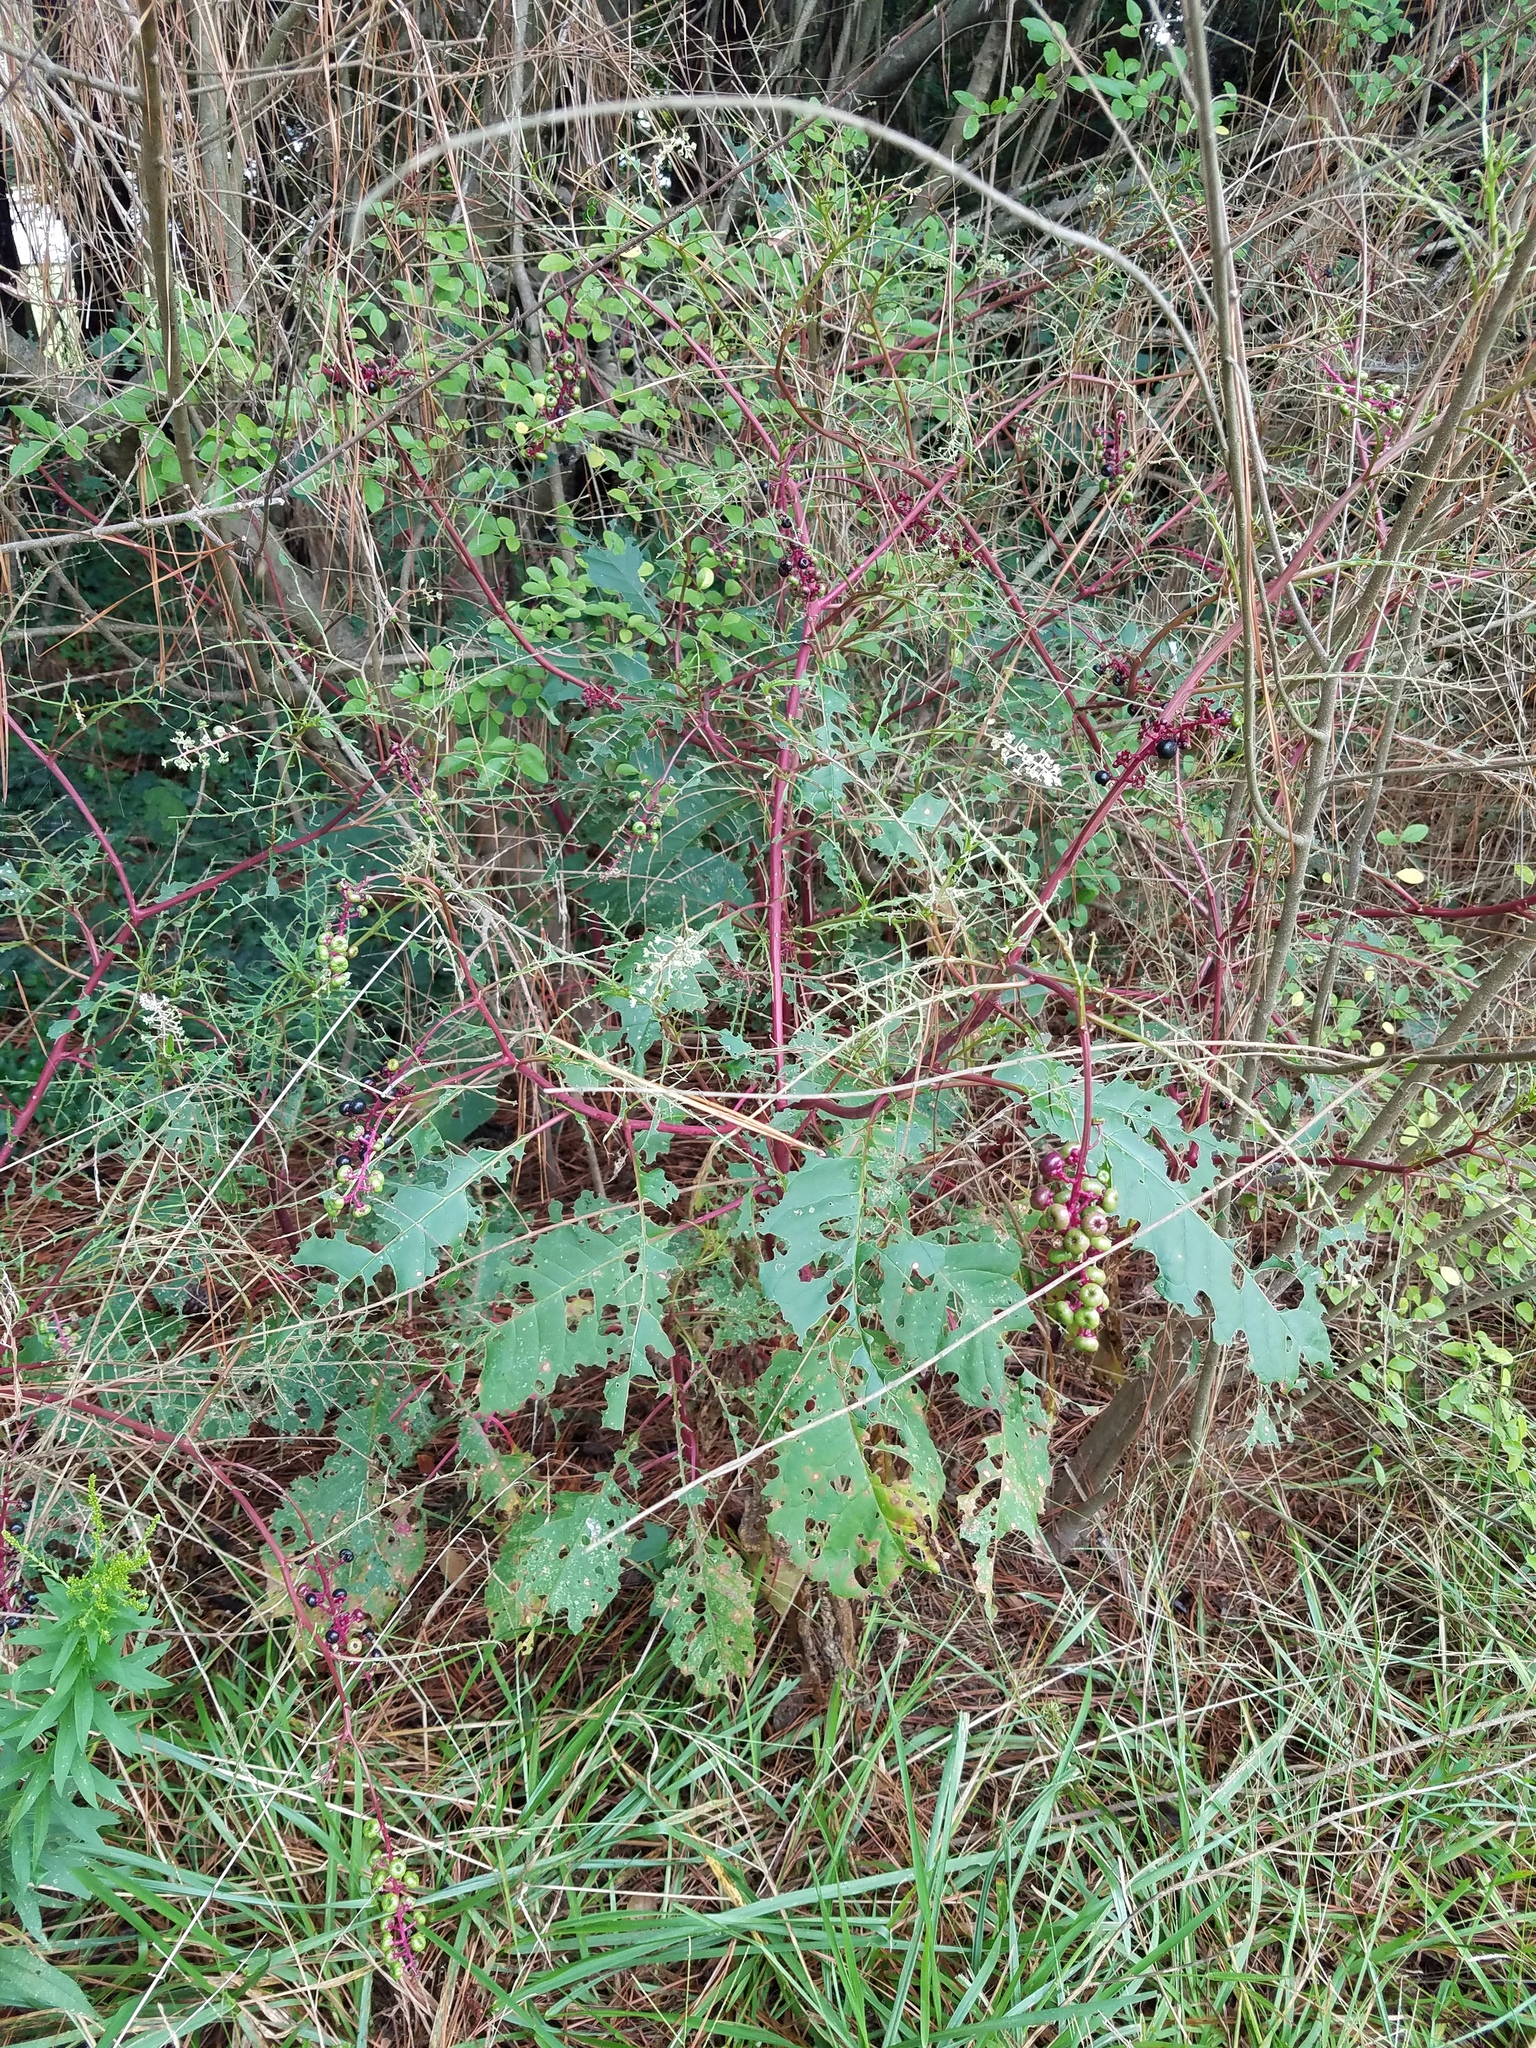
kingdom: Plantae
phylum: Tracheophyta
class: Magnoliopsida
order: Caryophyllales
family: Phytolaccaceae
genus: Phytolacca
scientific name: Phytolacca americana
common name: American pokeweed
